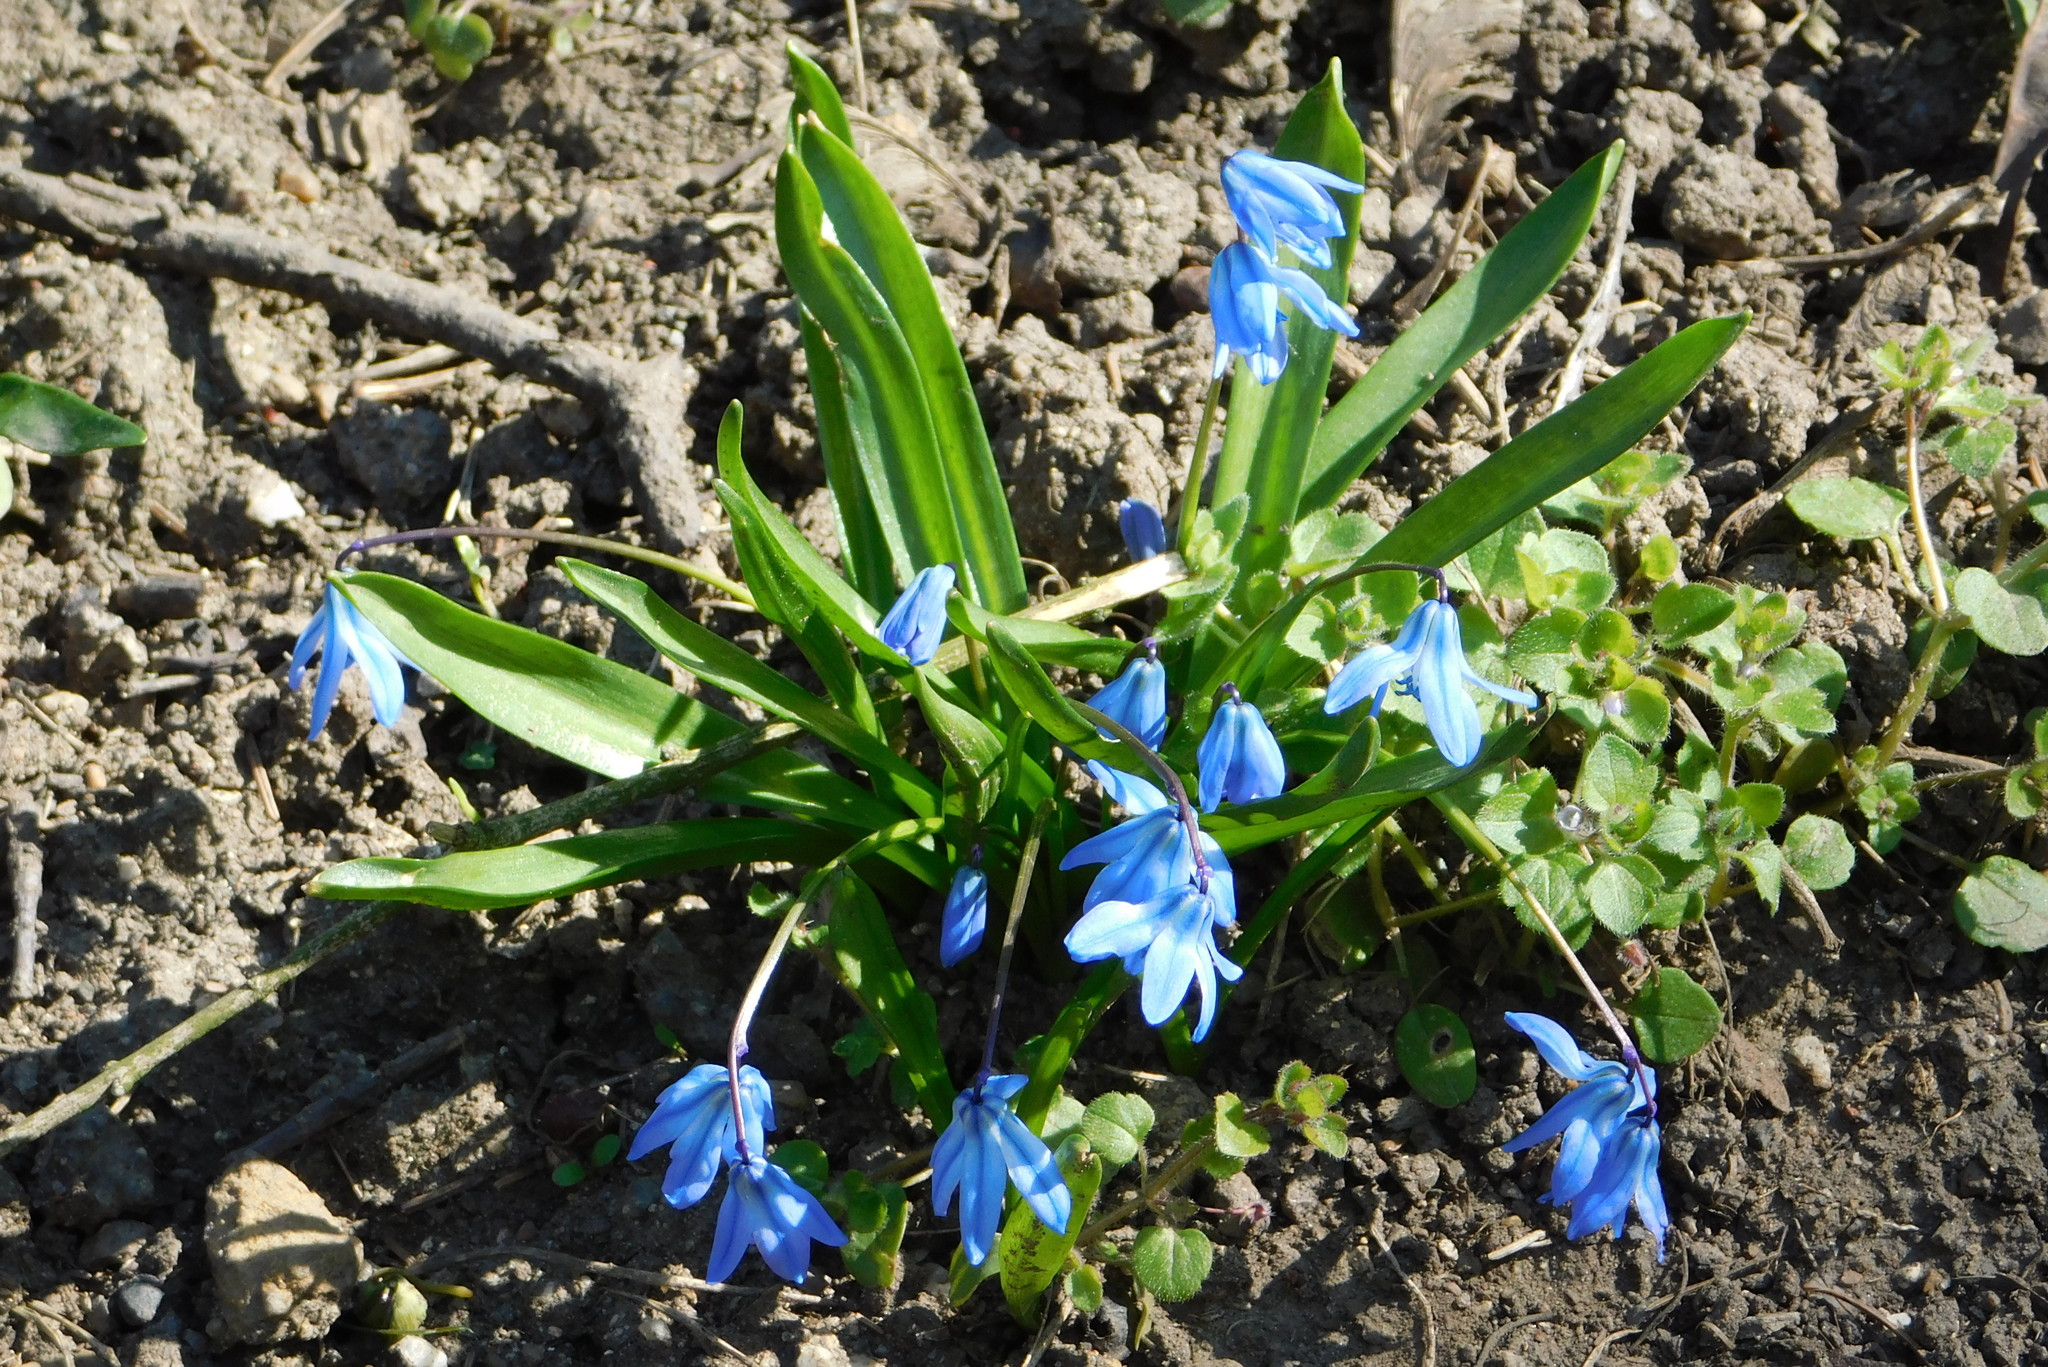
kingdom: Plantae
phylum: Tracheophyta
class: Liliopsida
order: Asparagales
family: Asparagaceae
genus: Scilla
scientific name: Scilla siberica
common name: Siberian squill
